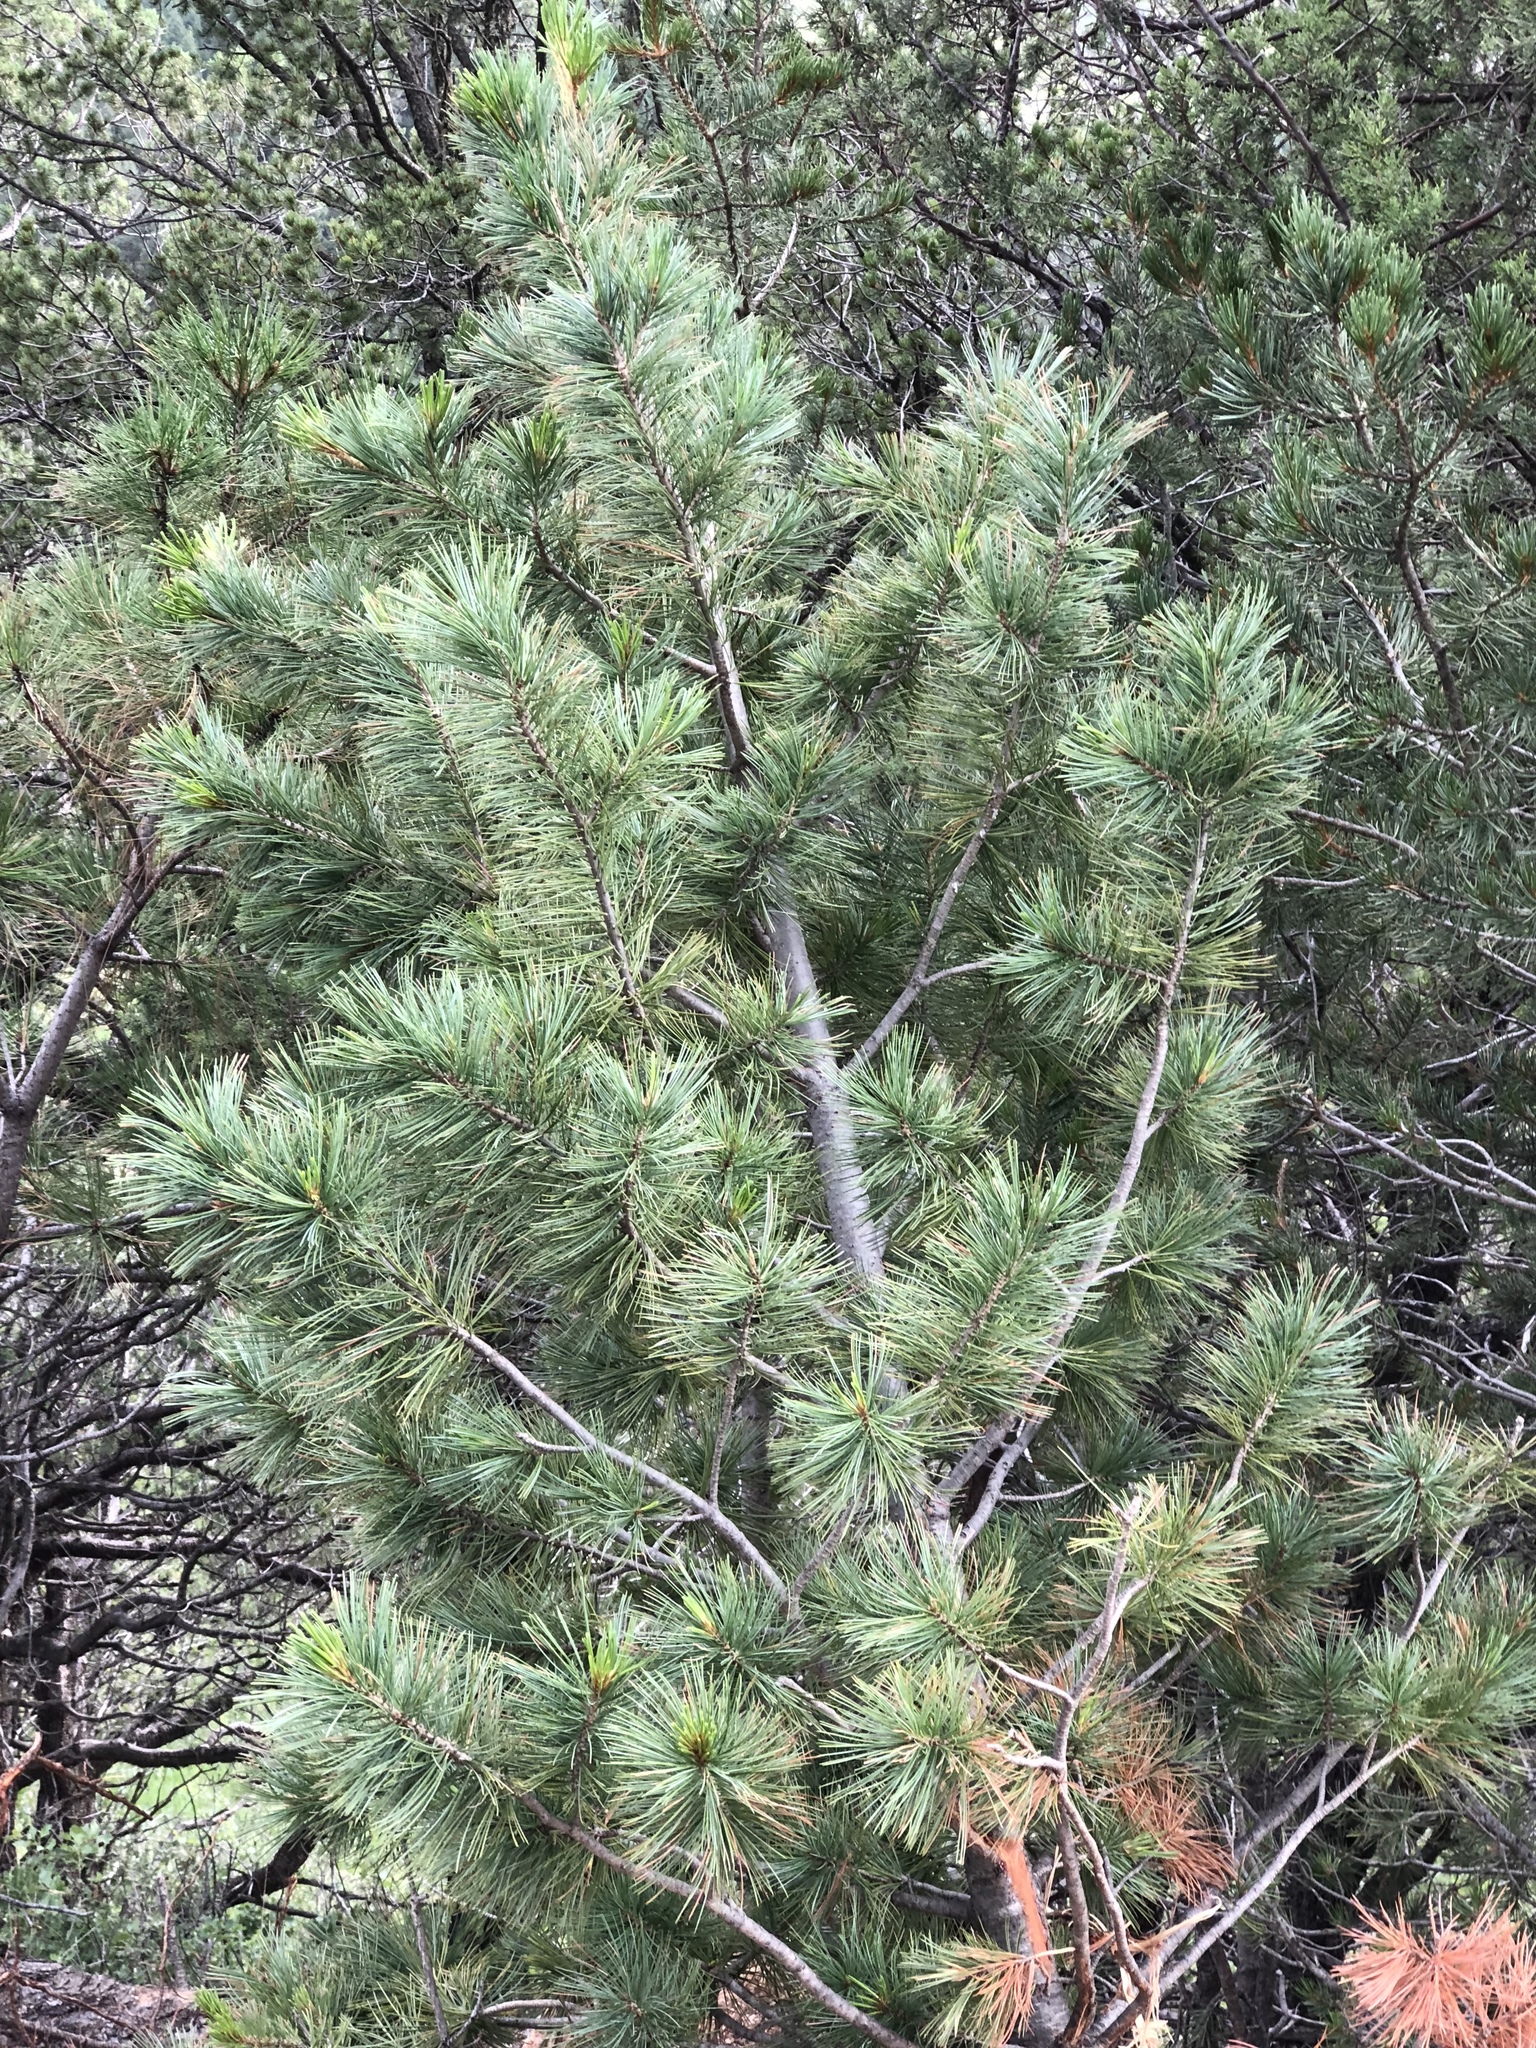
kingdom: Plantae
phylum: Tracheophyta
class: Pinopsida
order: Pinales
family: Pinaceae
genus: Pinus
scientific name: Pinus strobiformis
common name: Southwestern white pine
